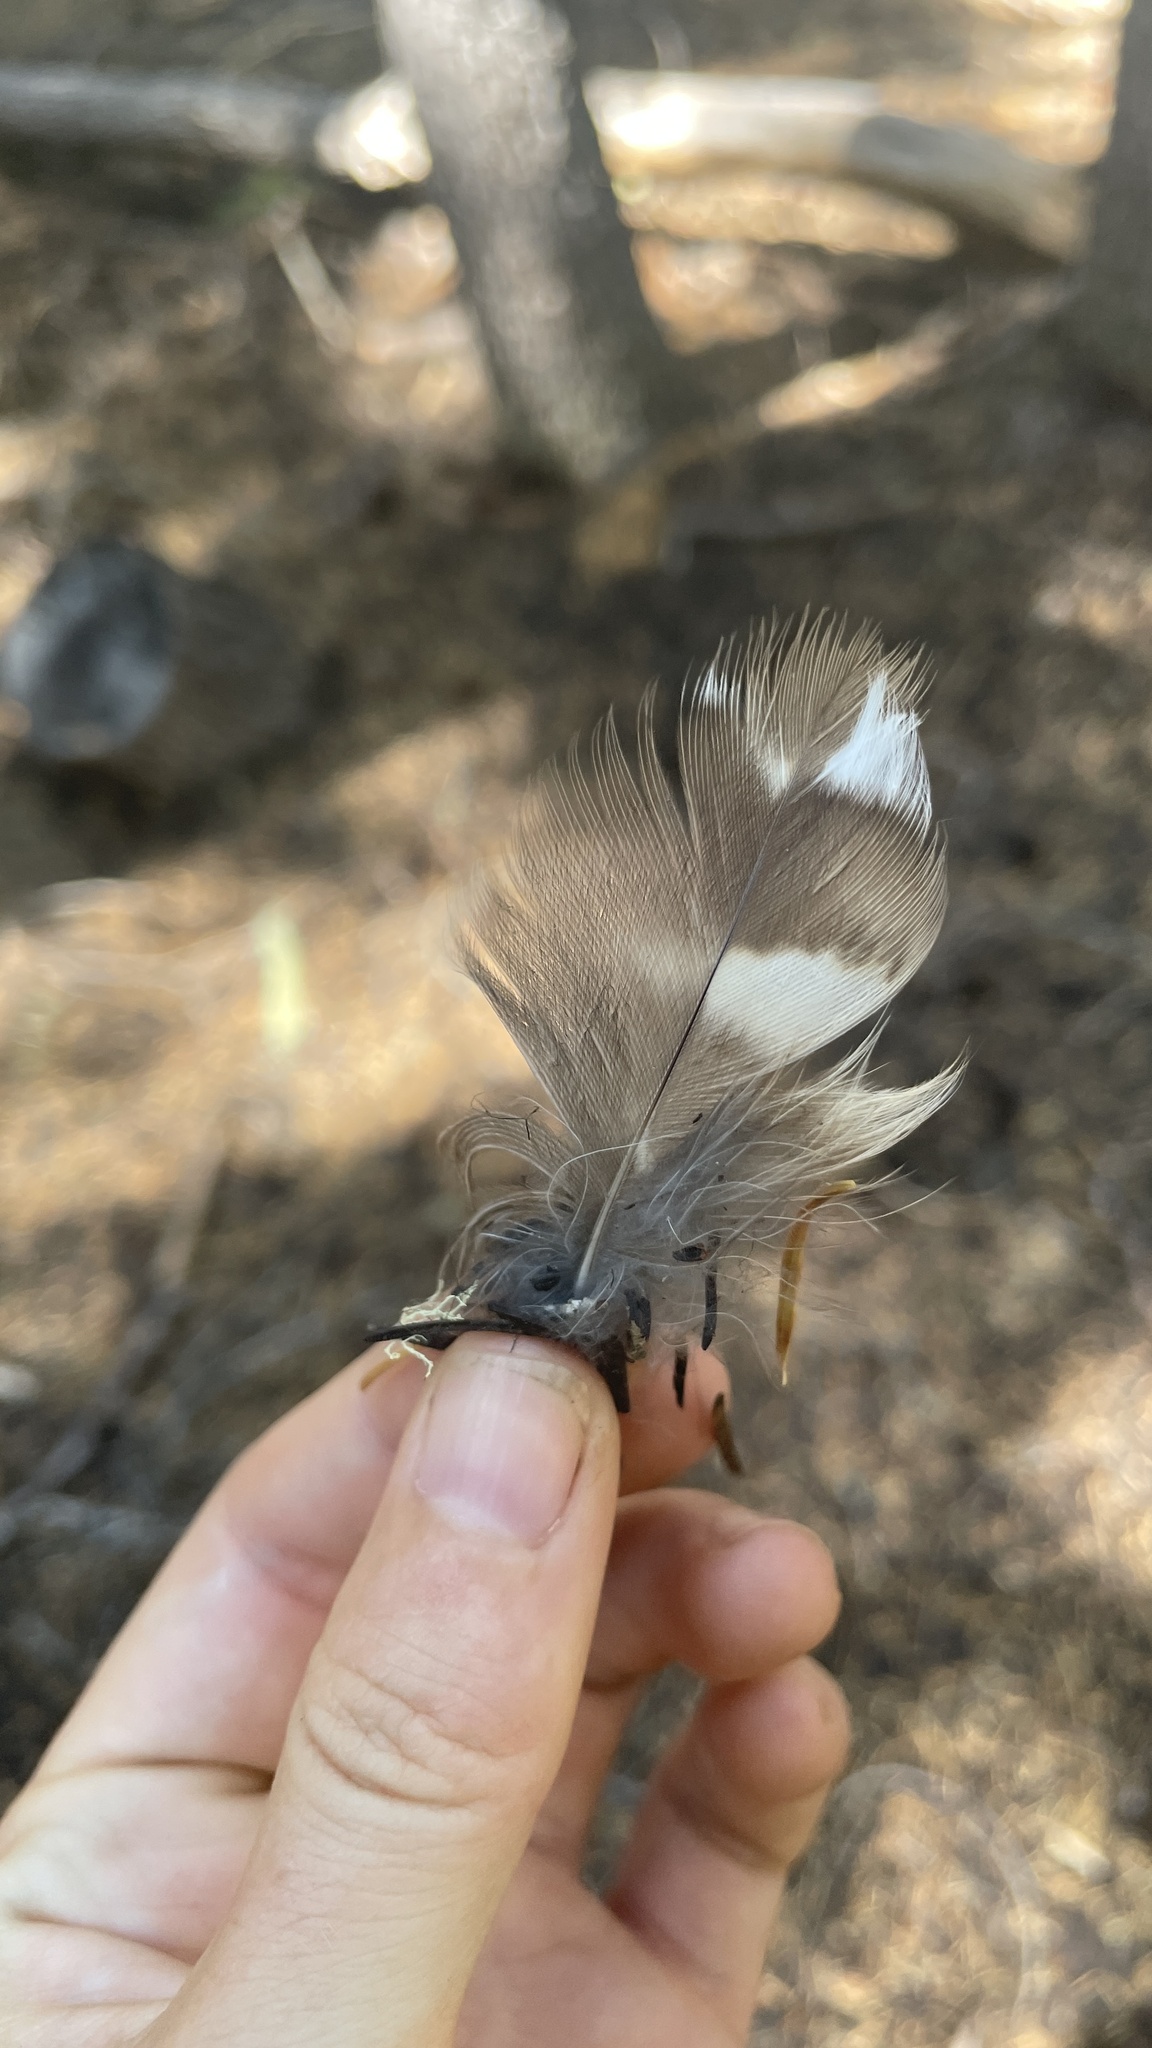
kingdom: Animalia
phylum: Chordata
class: Aves
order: Strigiformes
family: Strigidae
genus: Strix
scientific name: Strix varia
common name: Barred owl
